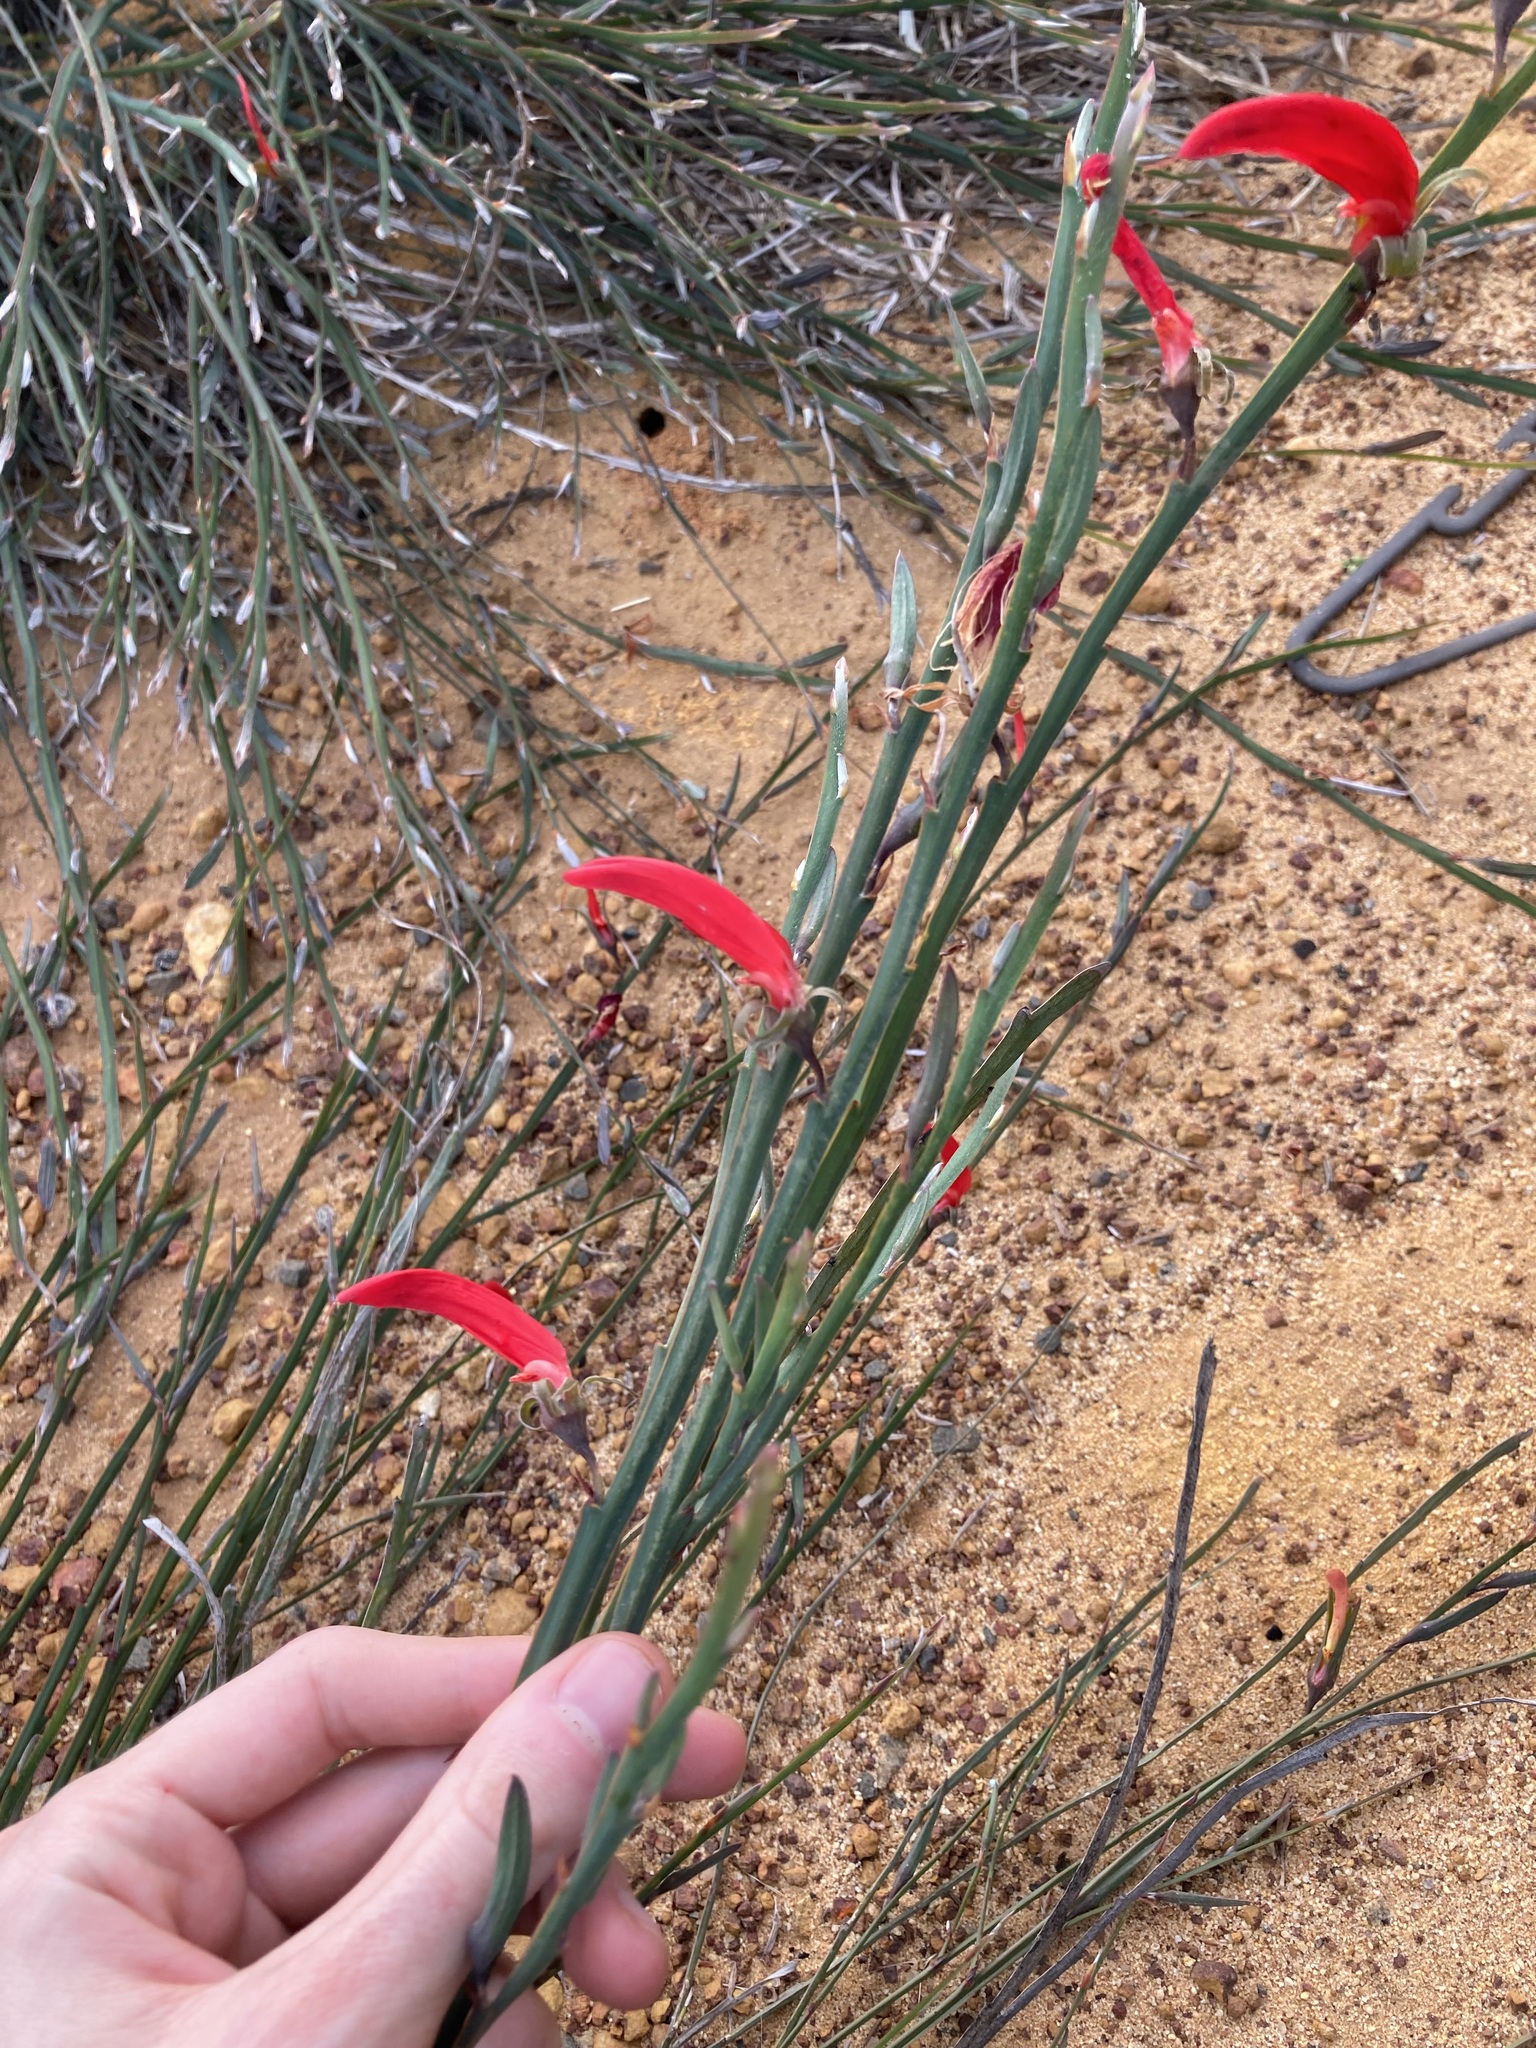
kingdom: Plantae
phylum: Tracheophyta
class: Magnoliopsida
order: Fabales
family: Fabaceae
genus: Leptosema
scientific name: Leptosema aphyllum
